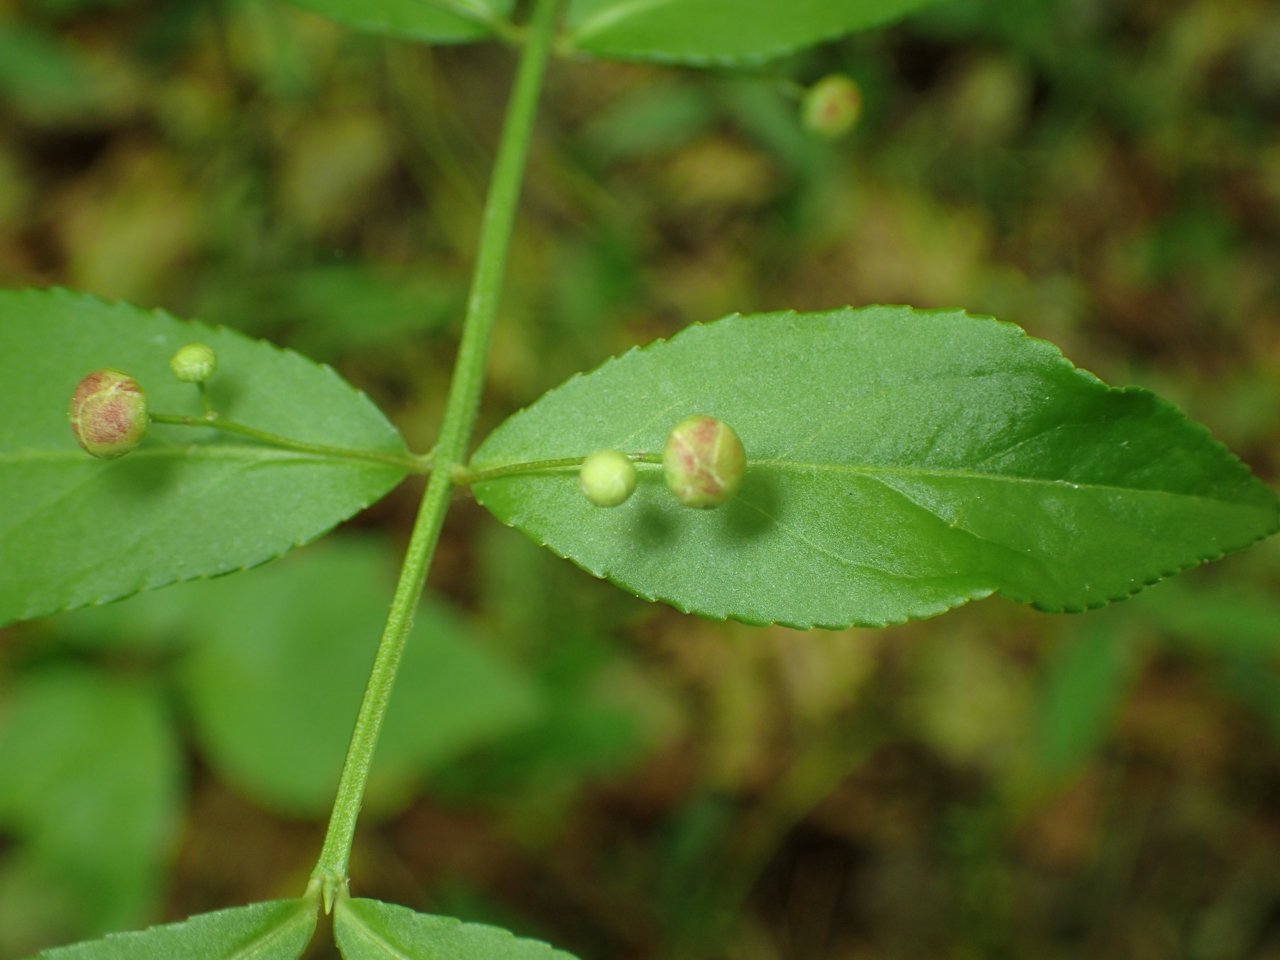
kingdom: Plantae
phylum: Tracheophyta
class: Magnoliopsida
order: Celastrales
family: Celastraceae
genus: Euonymus
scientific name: Euonymus americanus
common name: Bursting-heart
